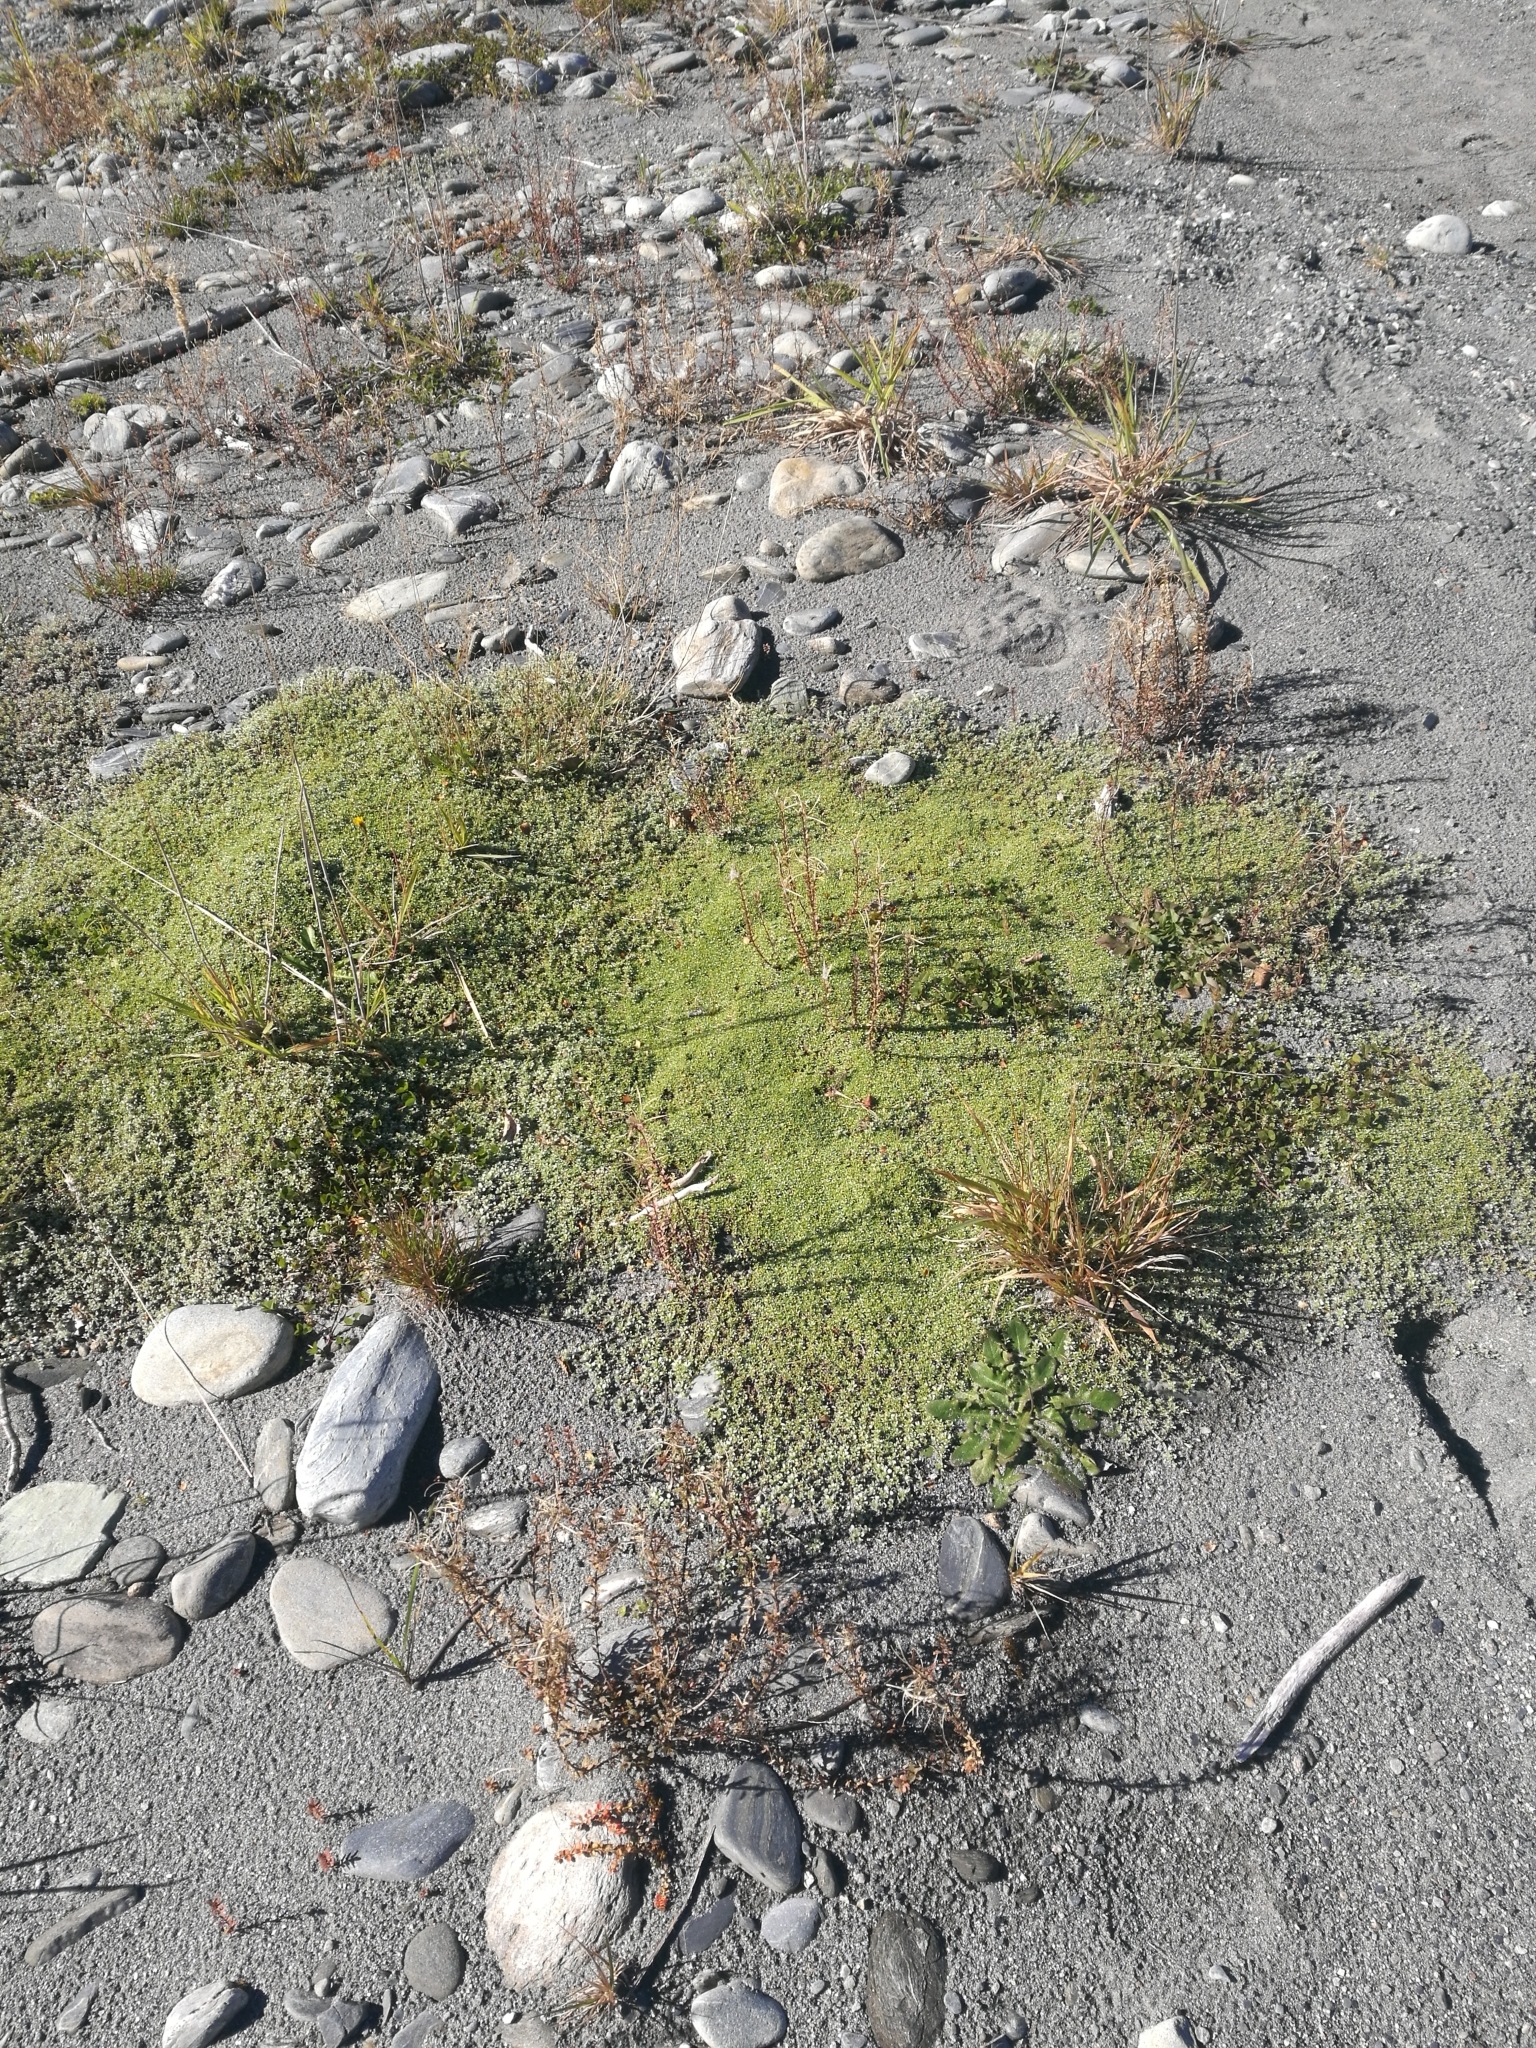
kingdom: Plantae
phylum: Tracheophyta
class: Magnoliopsida
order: Asterales
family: Asteraceae
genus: Raoulia
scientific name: Raoulia tenuicaulis
